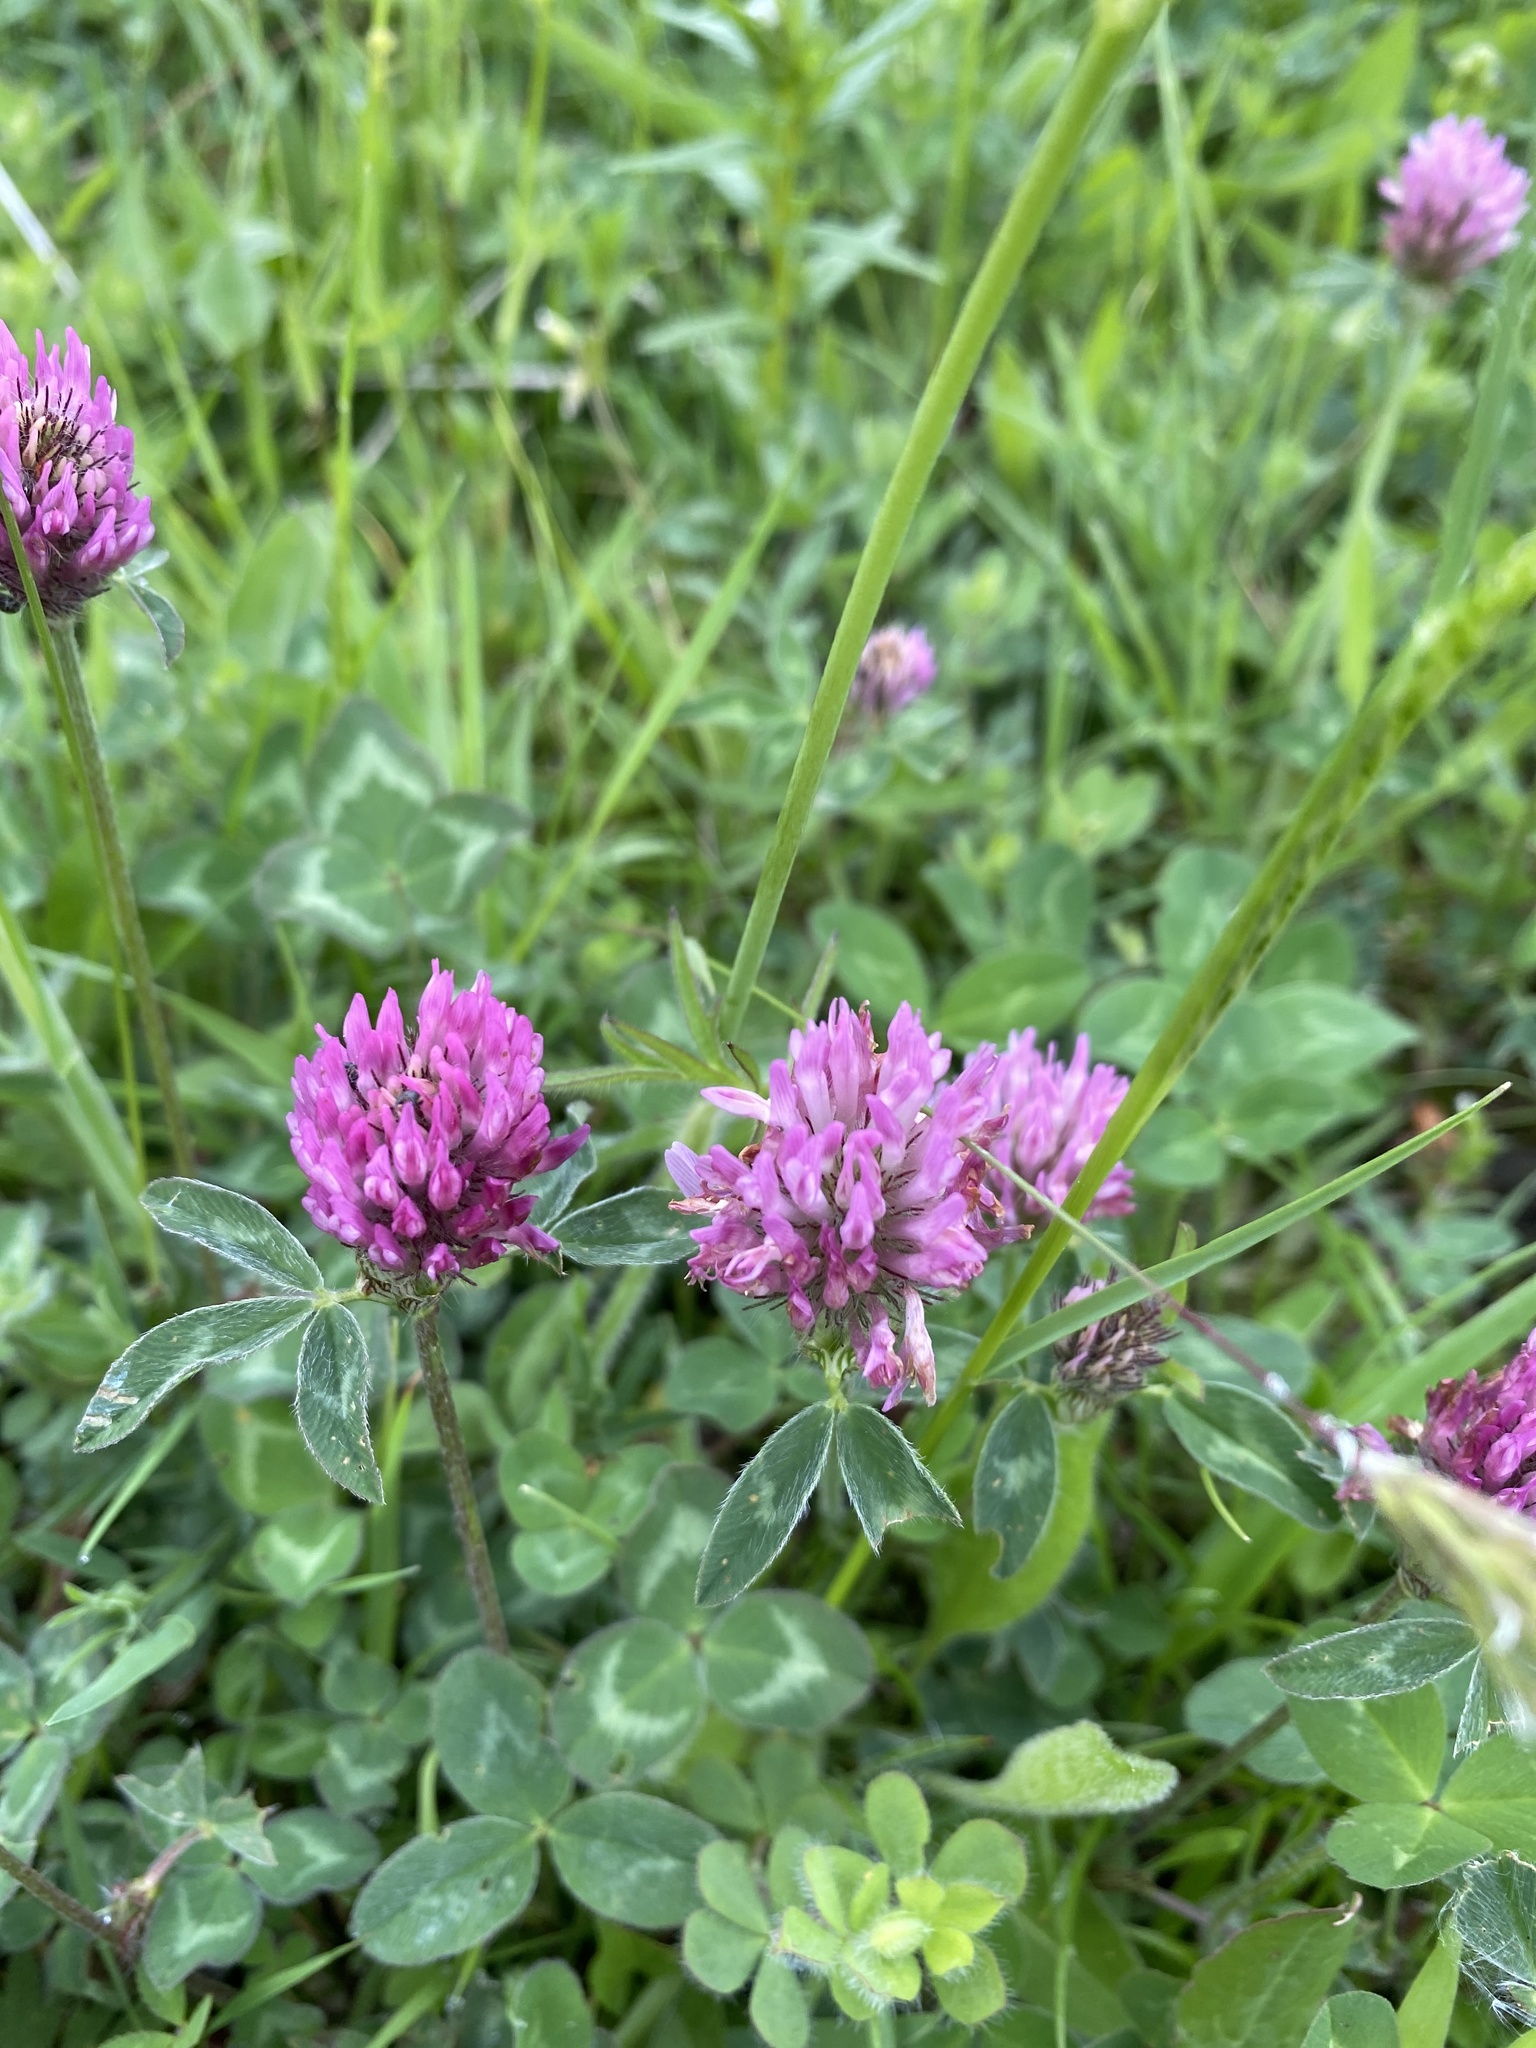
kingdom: Plantae
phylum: Tracheophyta
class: Magnoliopsida
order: Fabales
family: Fabaceae
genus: Trifolium
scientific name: Trifolium pratense
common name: Red clover
